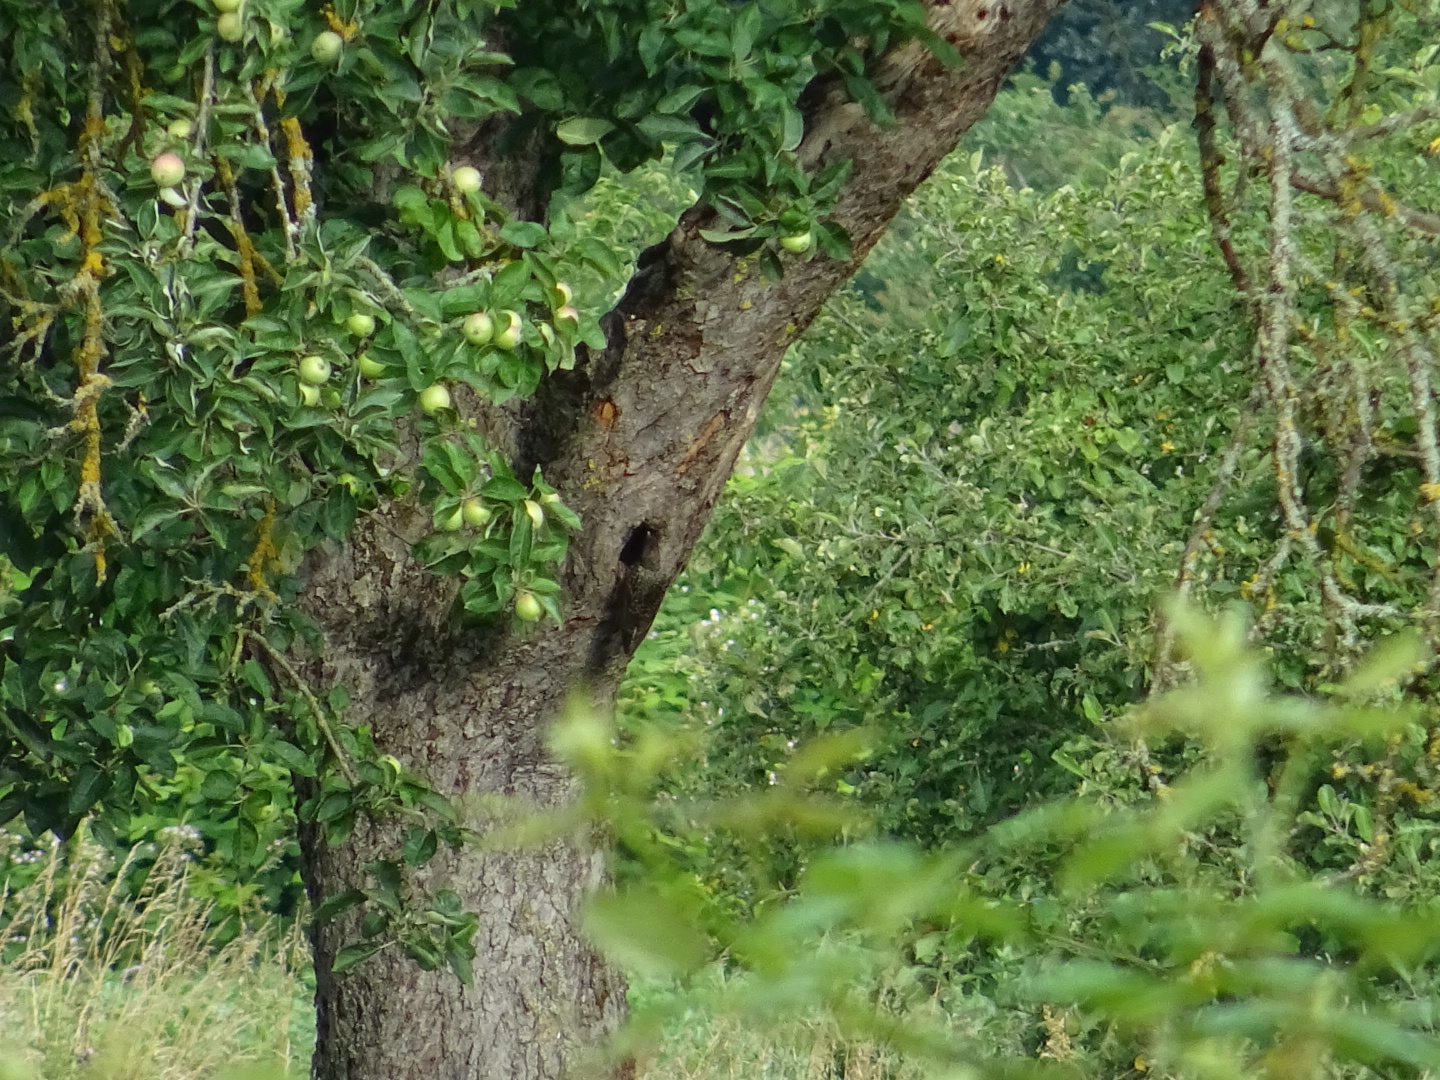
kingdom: Animalia
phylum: Chordata
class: Aves
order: Passeriformes
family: Sturnidae
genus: Sturnus
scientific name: Sturnus vulgaris
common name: Common starling
